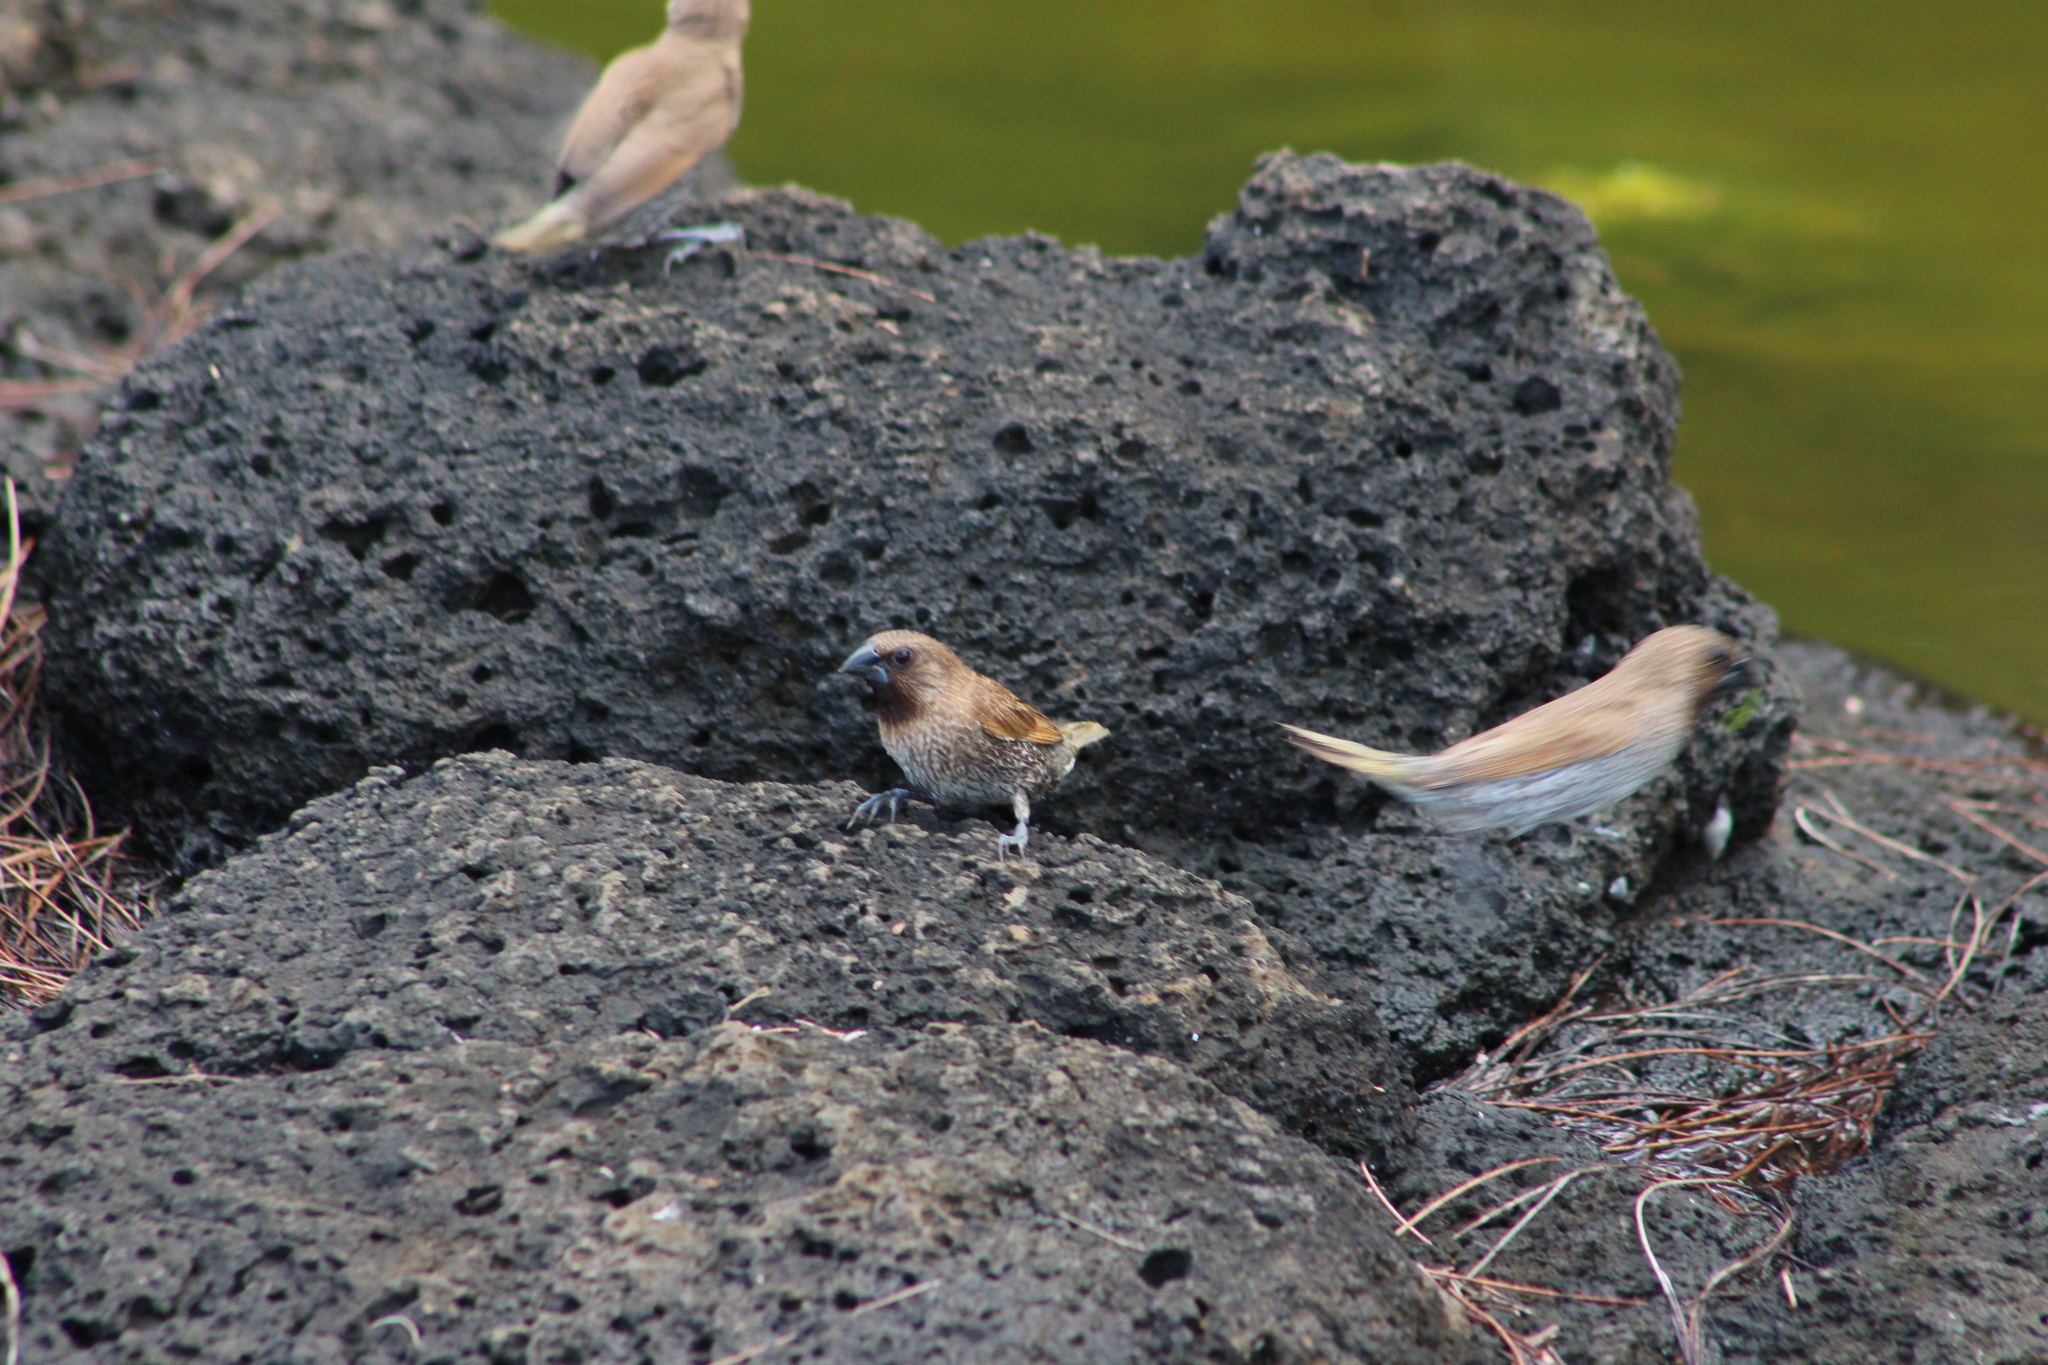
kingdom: Animalia
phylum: Chordata
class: Aves
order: Passeriformes
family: Estrildidae
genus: Lonchura
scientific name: Lonchura punctulata
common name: Scaly-breasted munia
